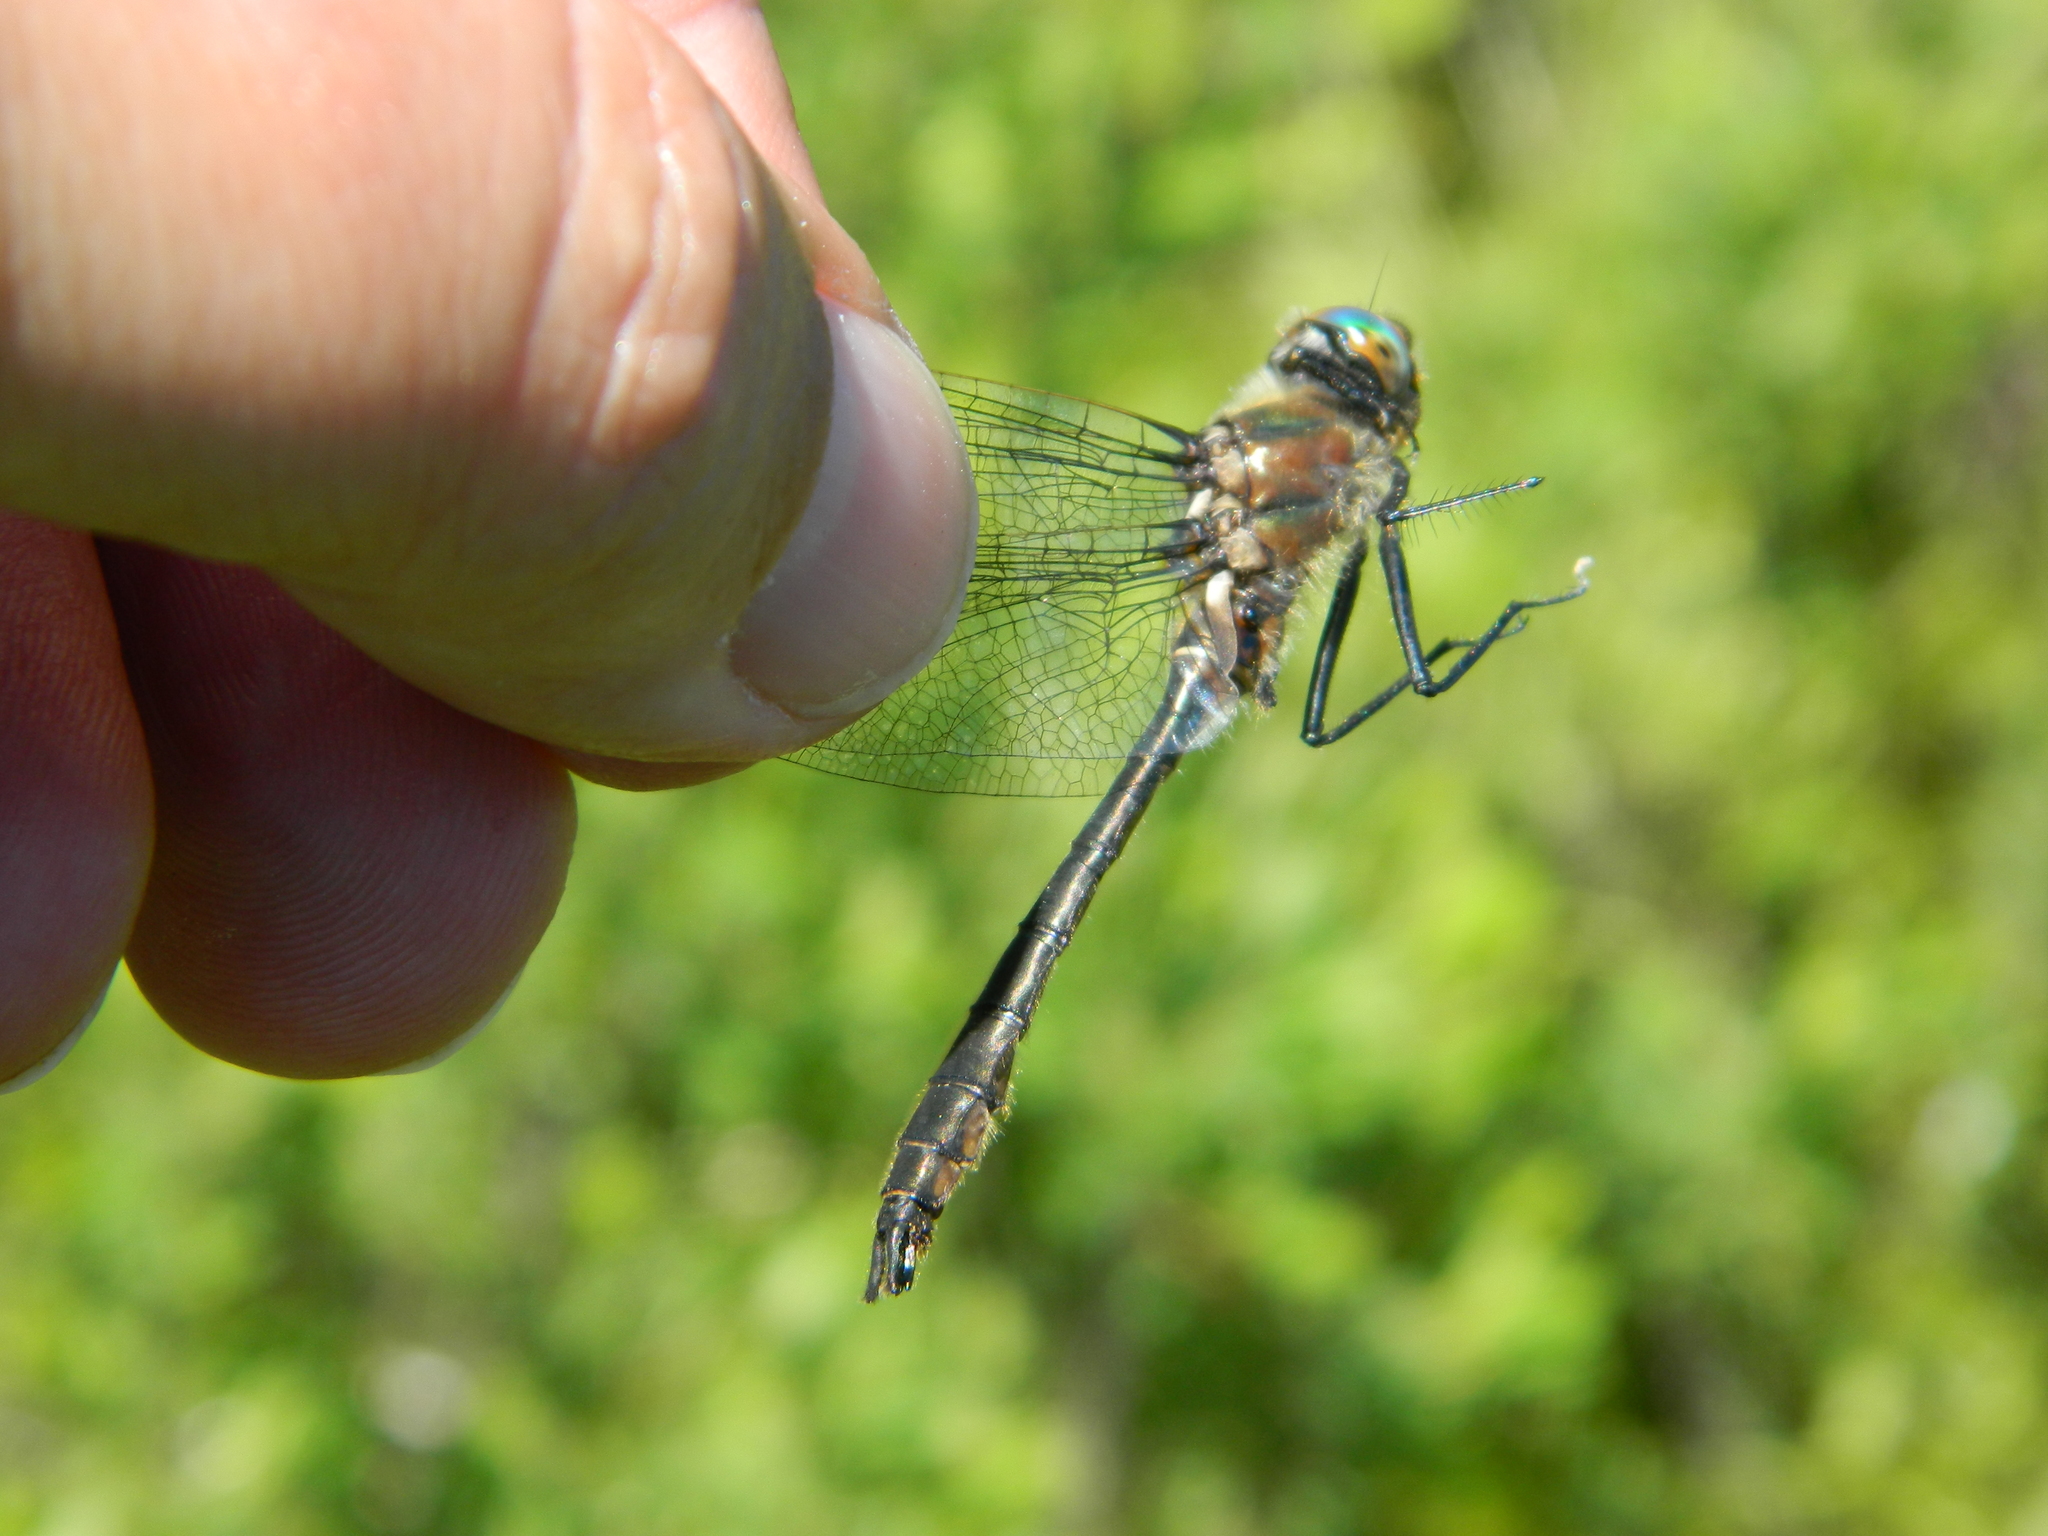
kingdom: Animalia
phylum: Arthropoda
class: Insecta
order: Odonata
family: Corduliidae
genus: Cordulia
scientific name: Cordulia shurtleffii
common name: American emerald
